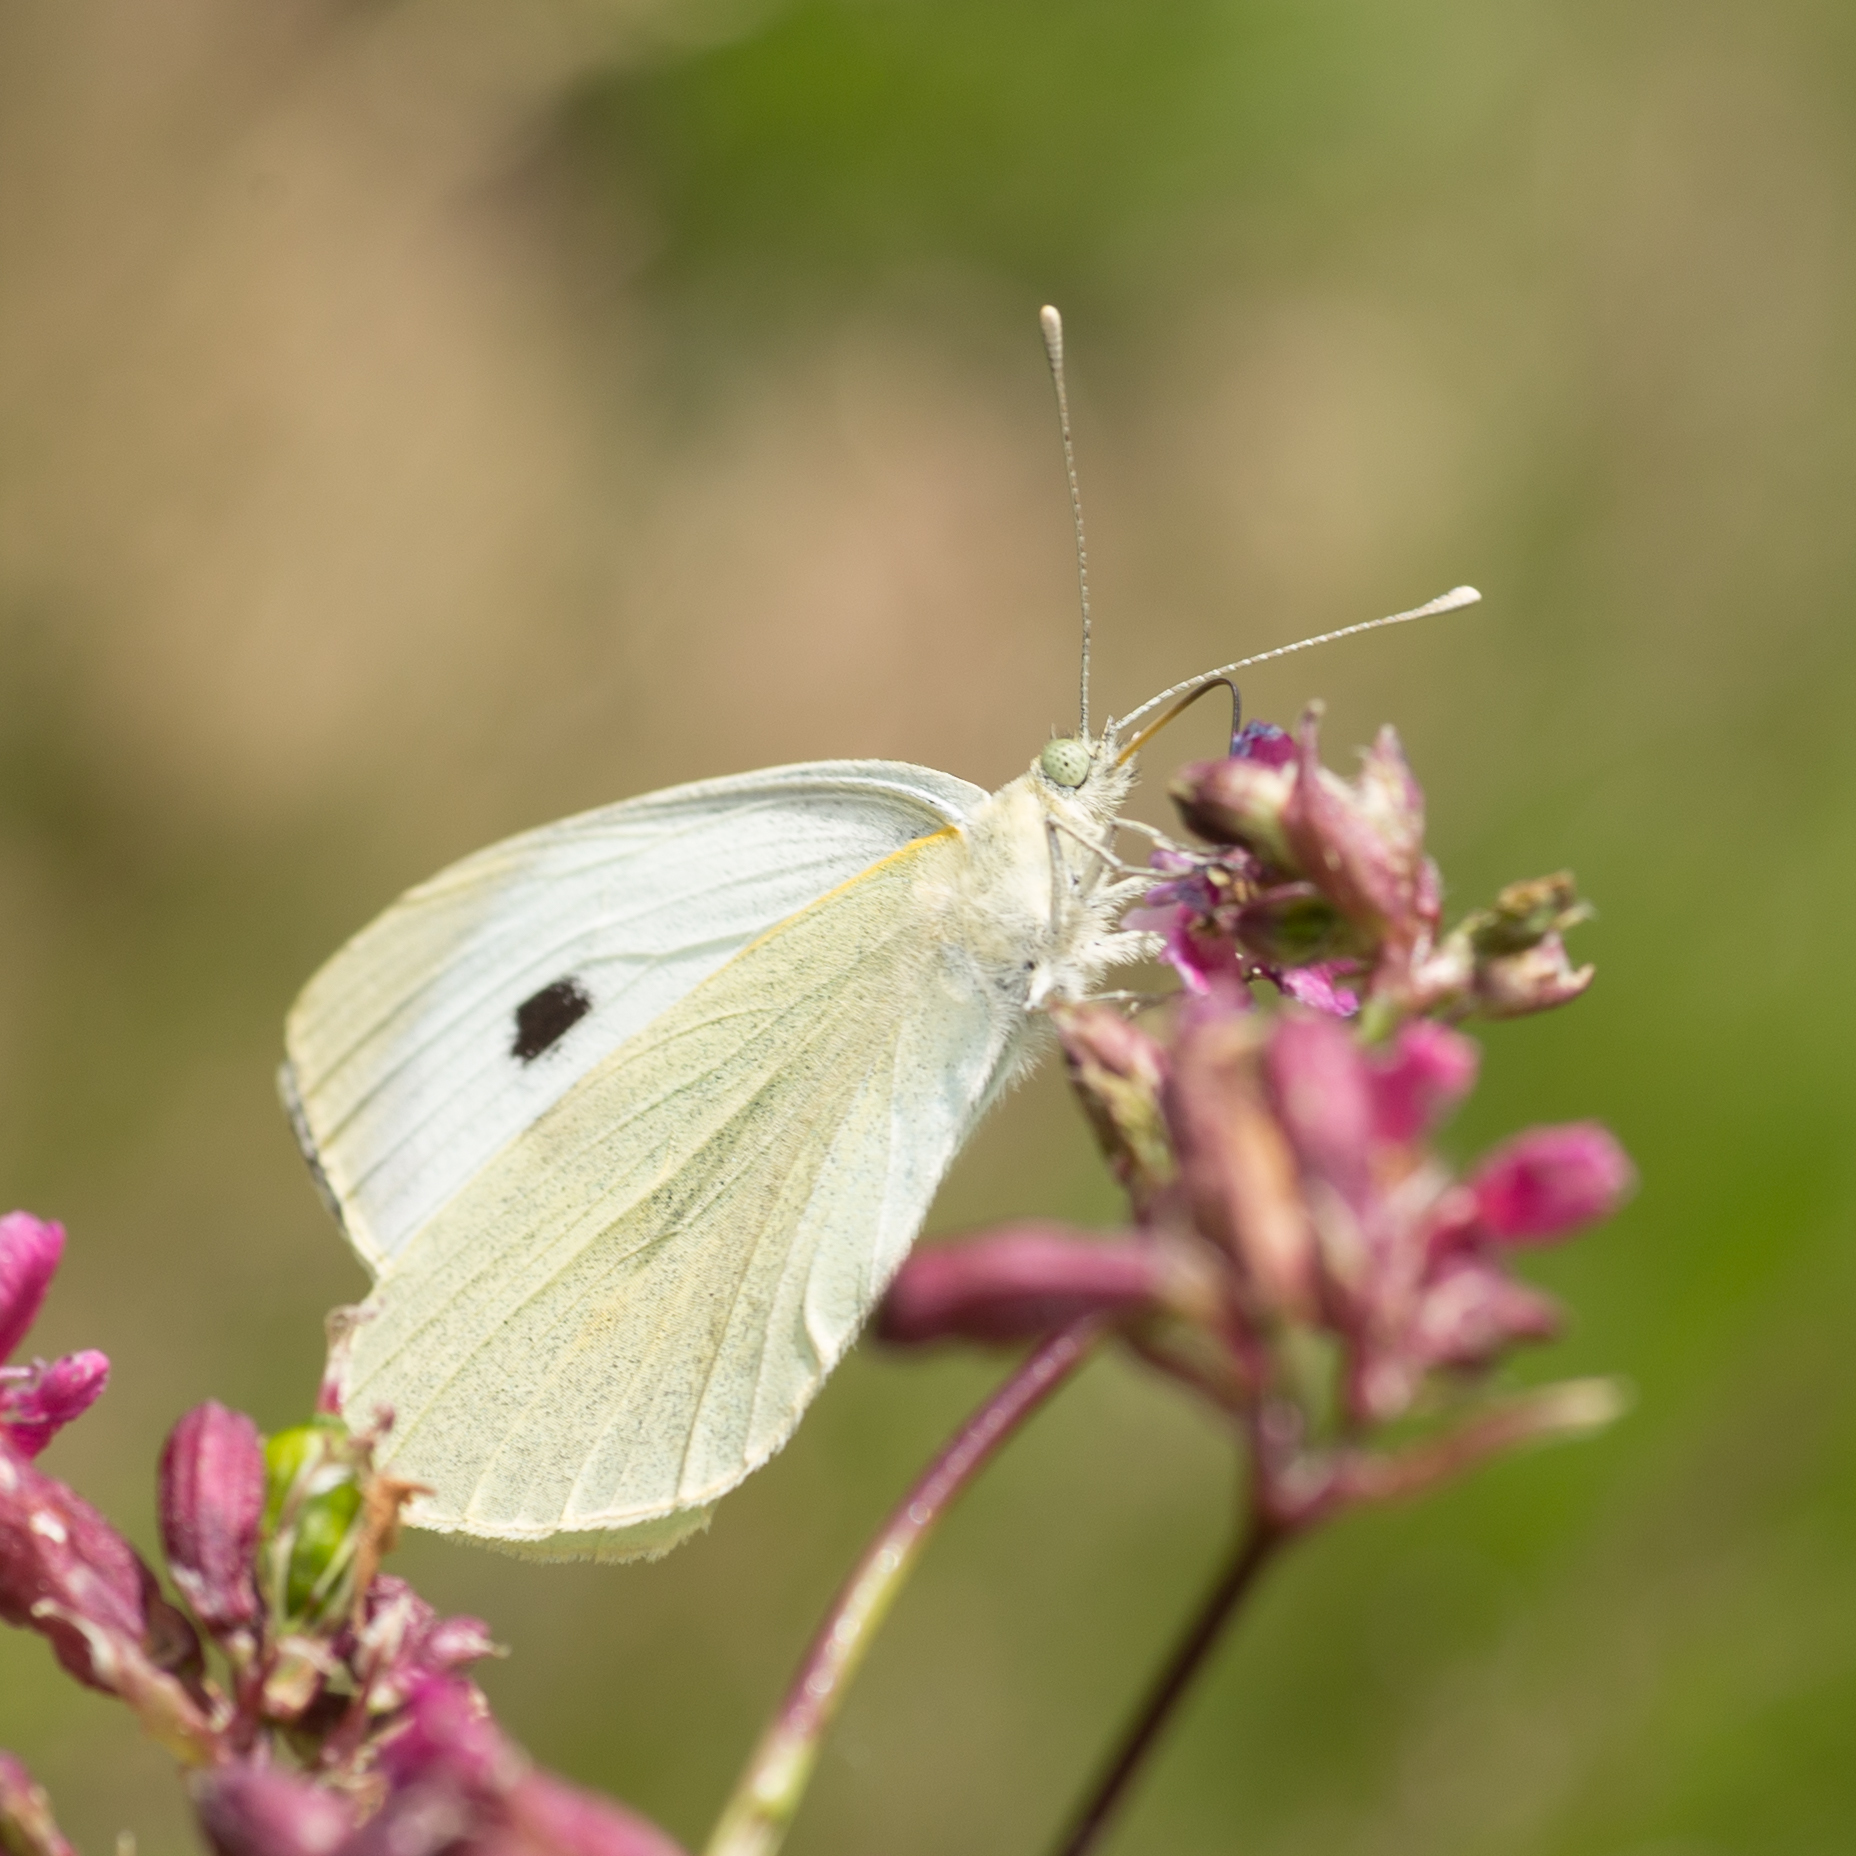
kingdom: Animalia
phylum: Arthropoda
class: Insecta
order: Lepidoptera
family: Pieridae
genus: Pieris
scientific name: Pieris brassicae
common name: Large white
